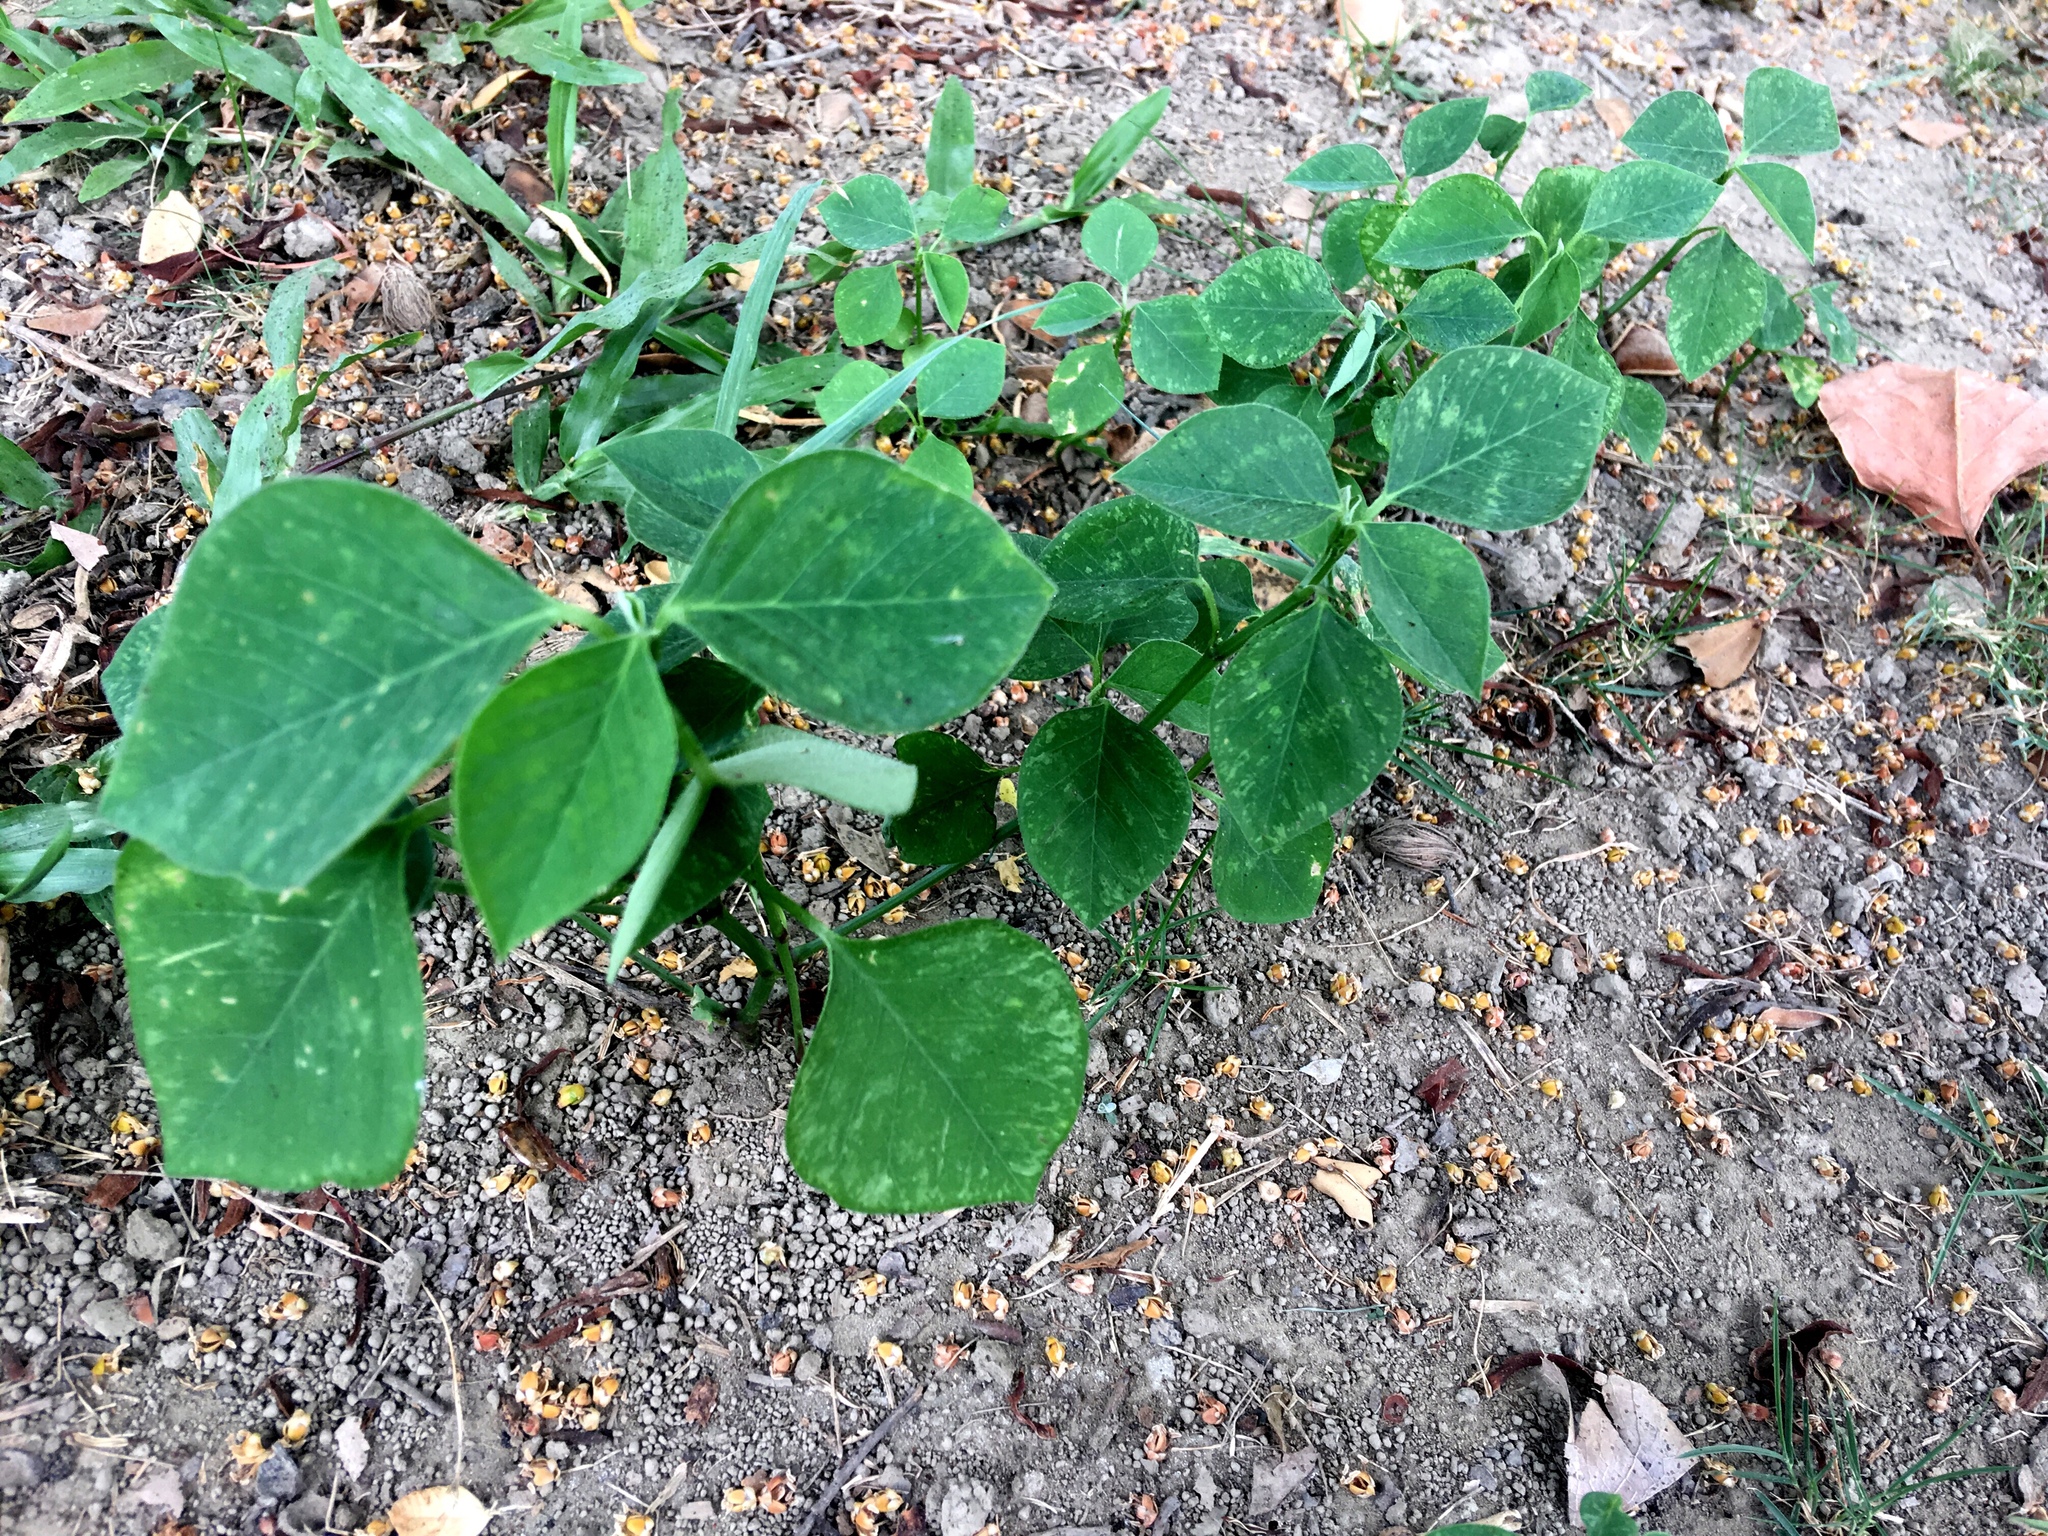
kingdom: Plantae
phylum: Tracheophyta
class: Magnoliopsida
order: Malpighiales
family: Euphorbiaceae
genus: Euphorbia
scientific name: Euphorbia graminea
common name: Grassleaf spurge
